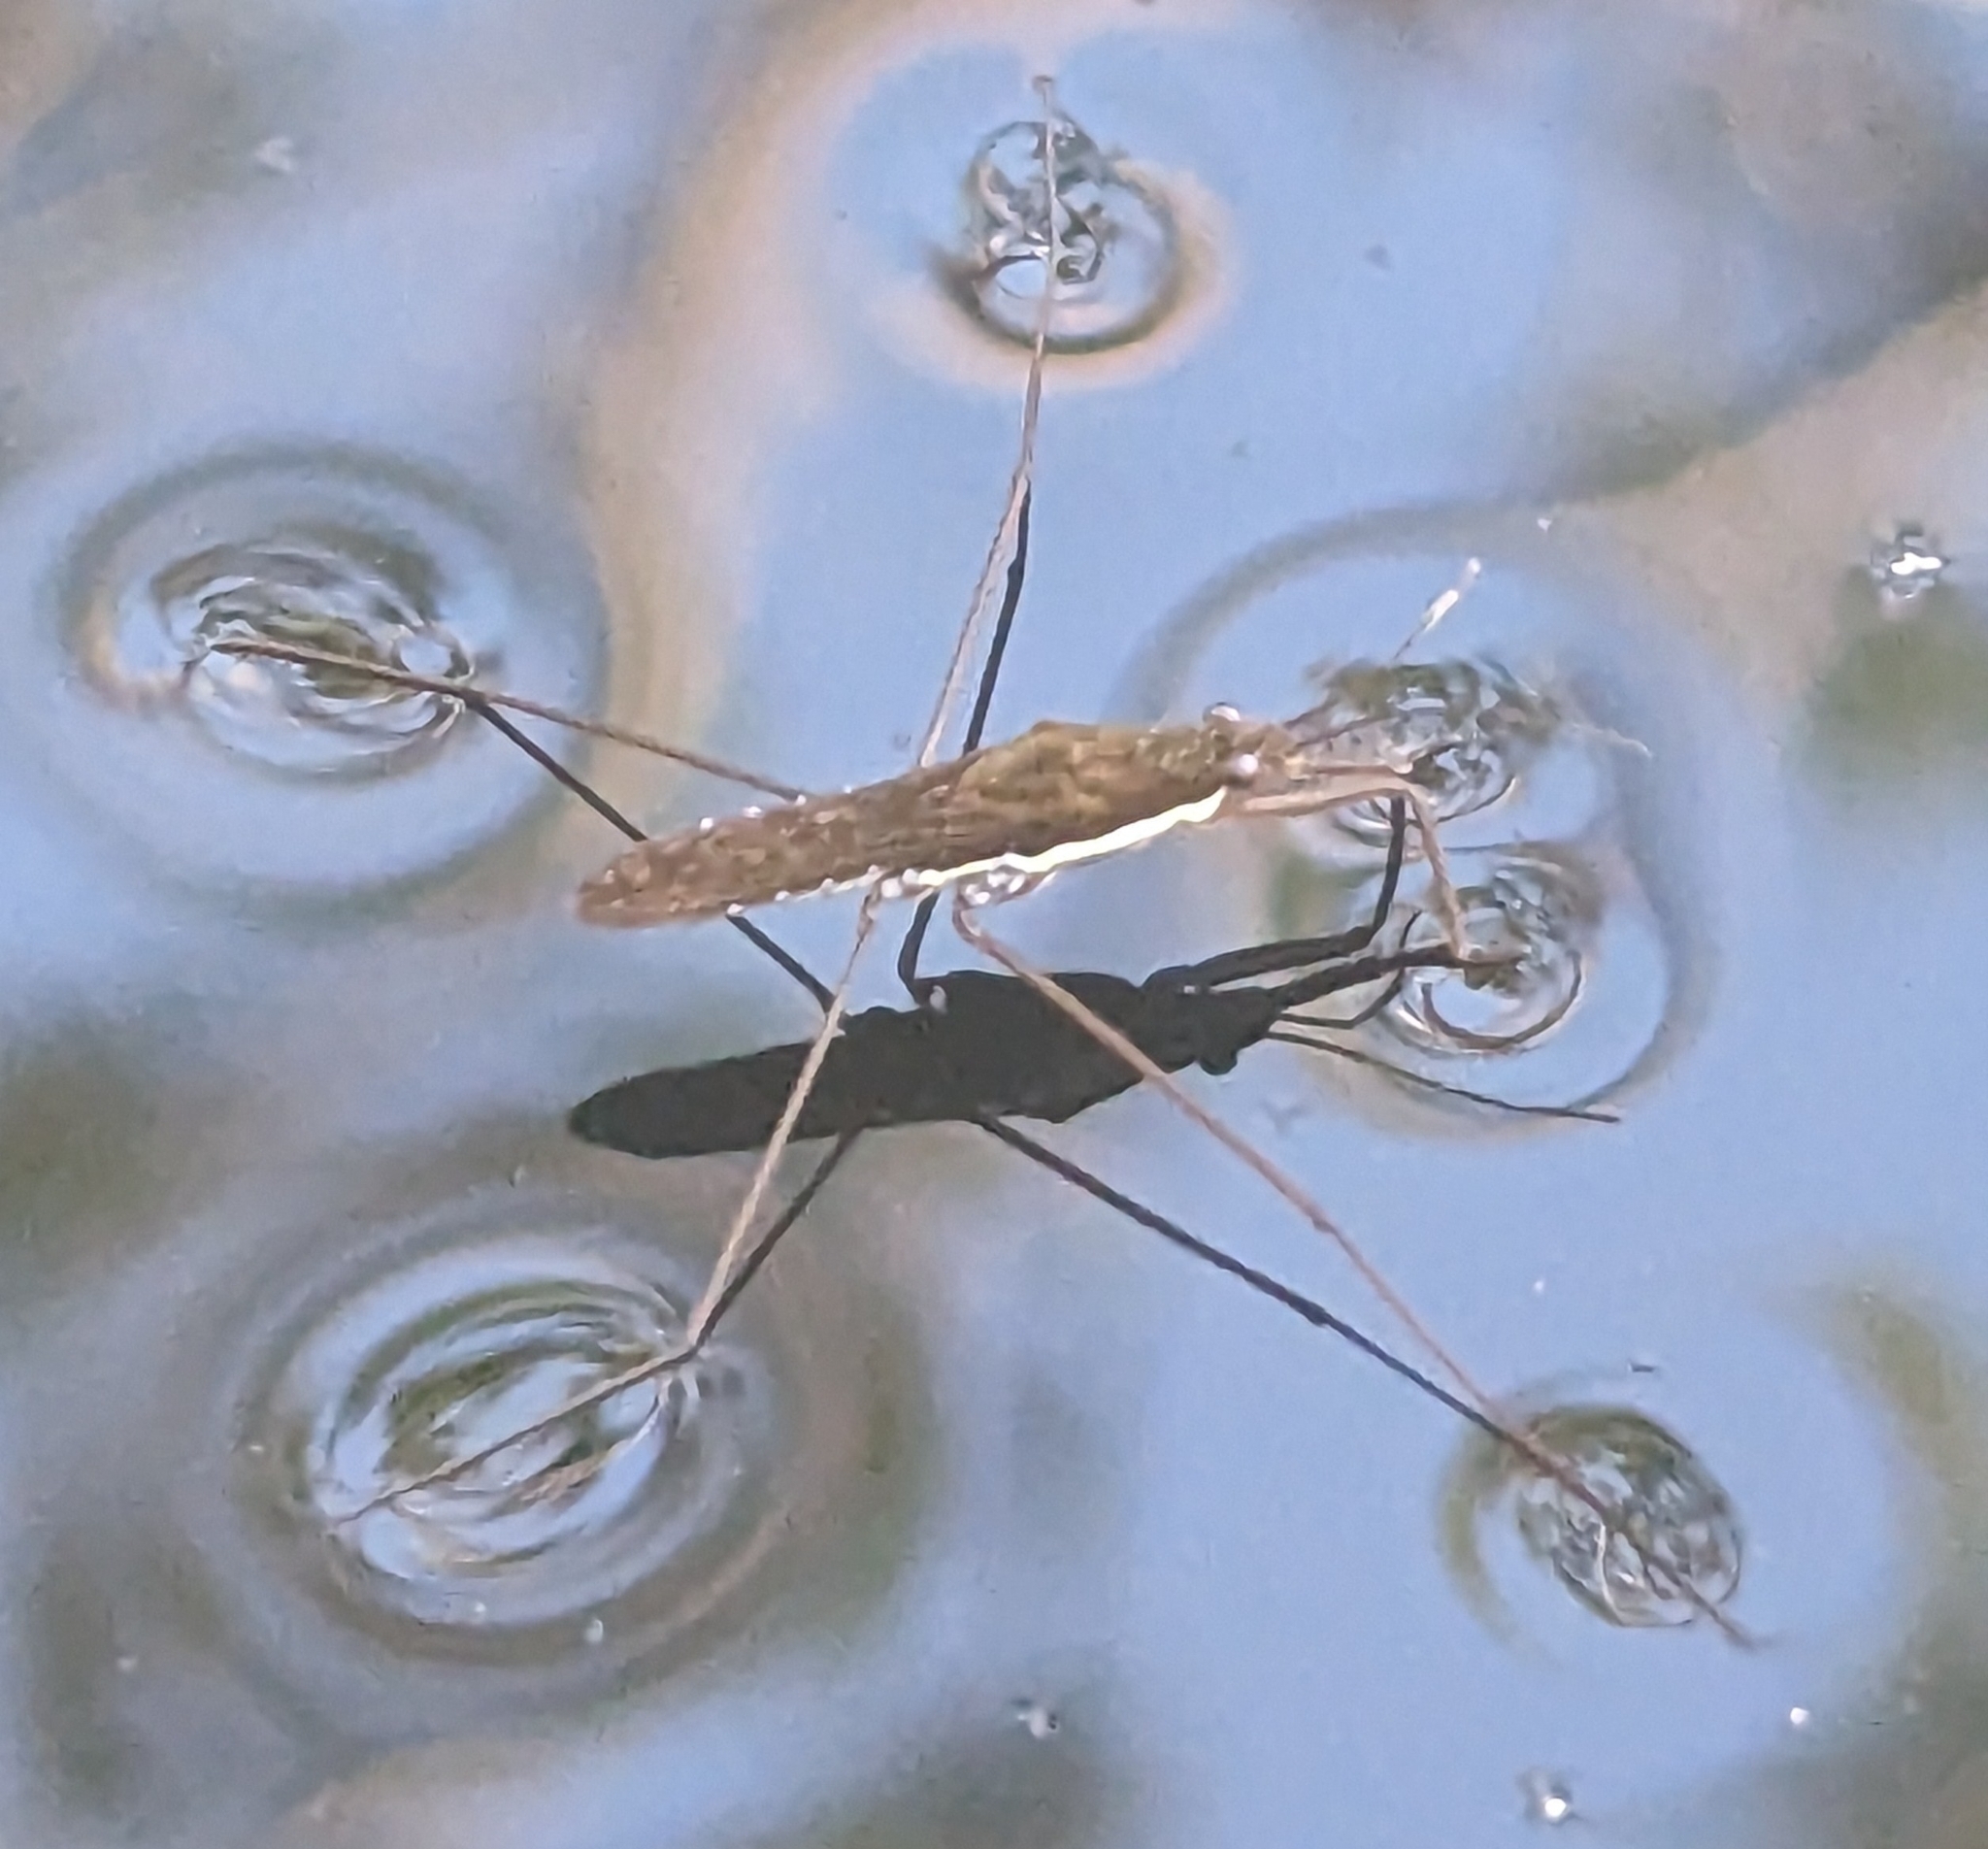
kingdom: Animalia
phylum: Arthropoda
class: Insecta
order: Hemiptera
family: Gerridae
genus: Gerris
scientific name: Gerris gracilicornis
